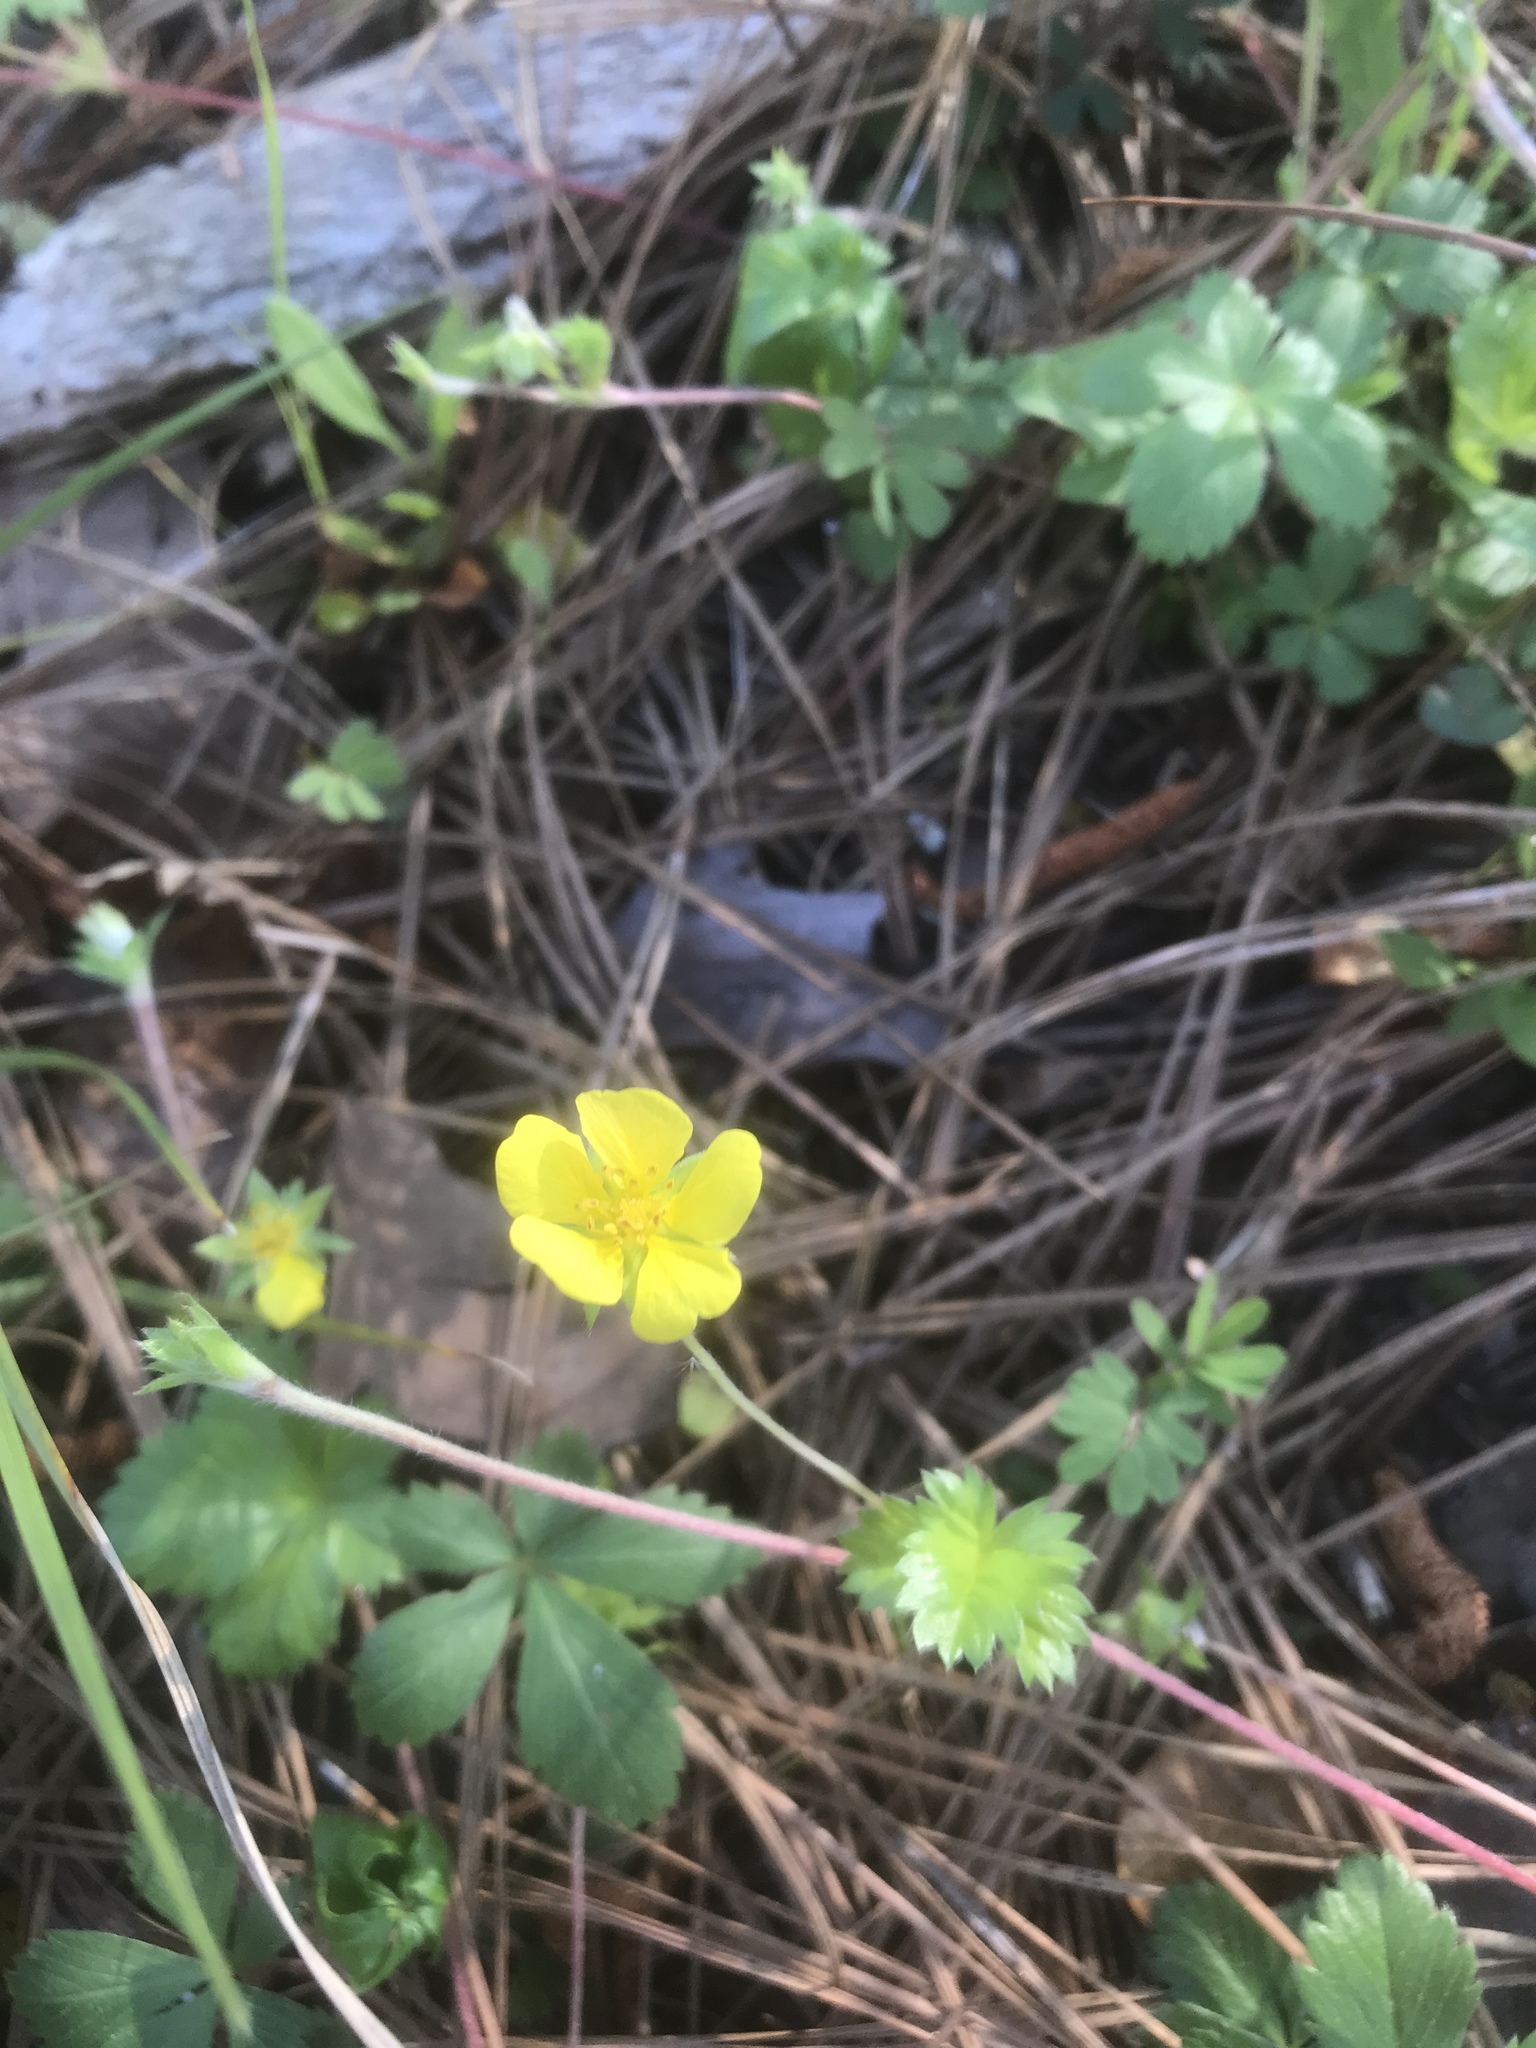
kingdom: Plantae
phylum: Tracheophyta
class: Magnoliopsida
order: Rosales
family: Rosaceae
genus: Potentilla
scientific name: Potentilla canadensis
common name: Canada cinquefoil
